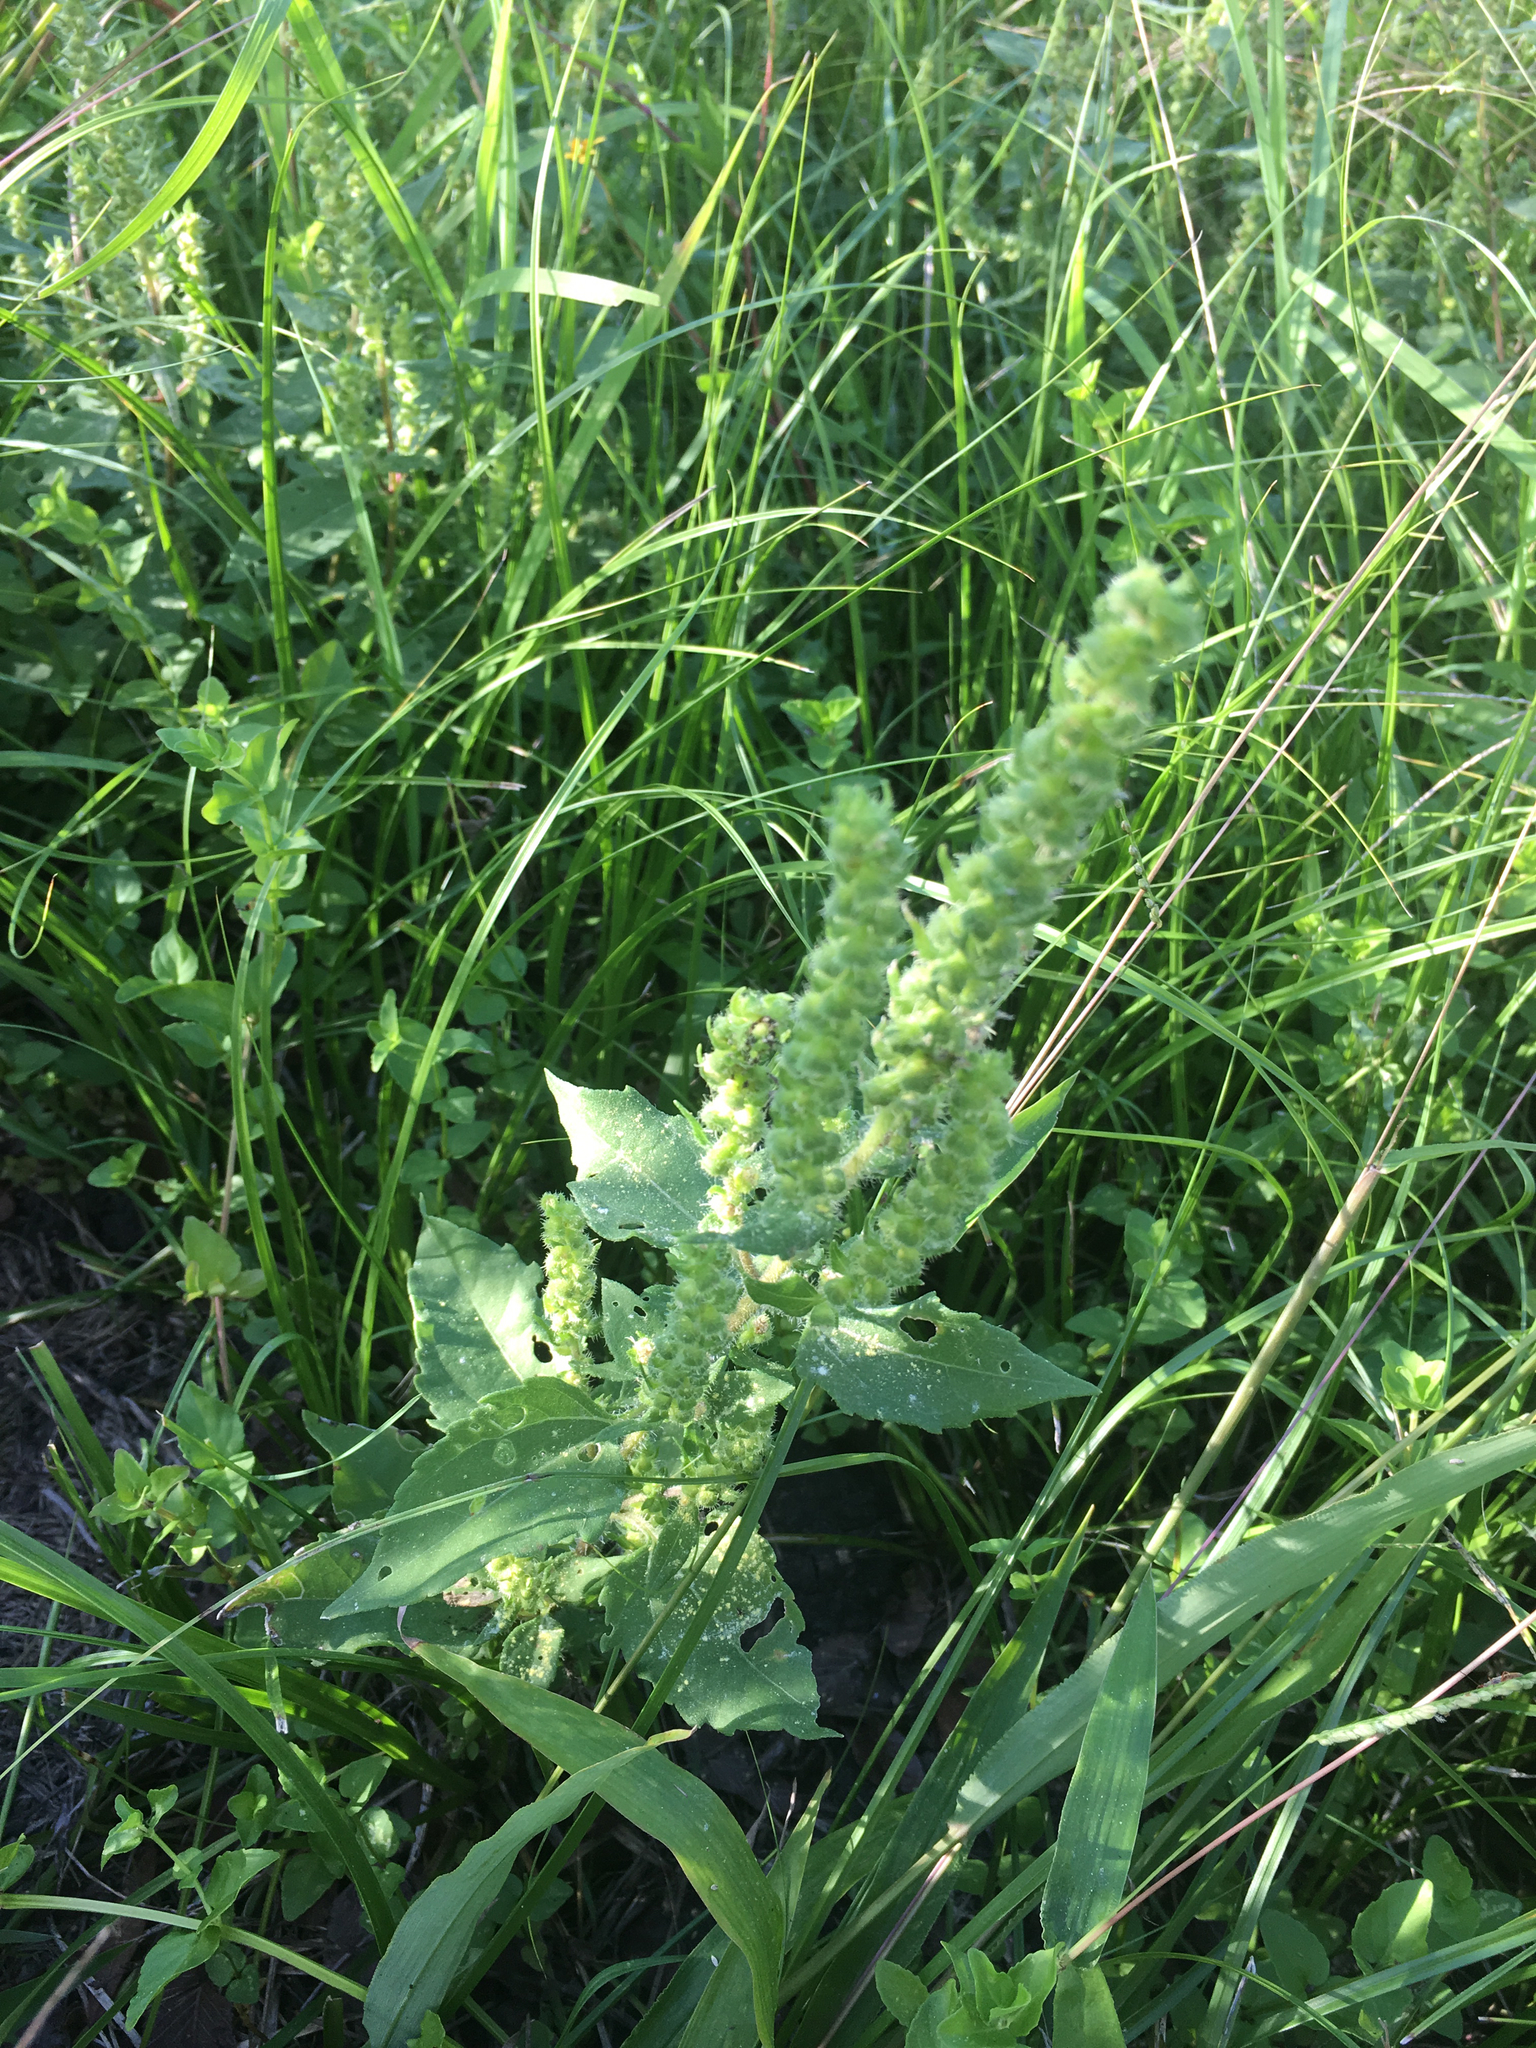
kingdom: Plantae
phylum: Tracheophyta
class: Magnoliopsida
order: Asterales
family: Asteraceae
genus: Iva
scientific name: Iva annua
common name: Marsh-elder
